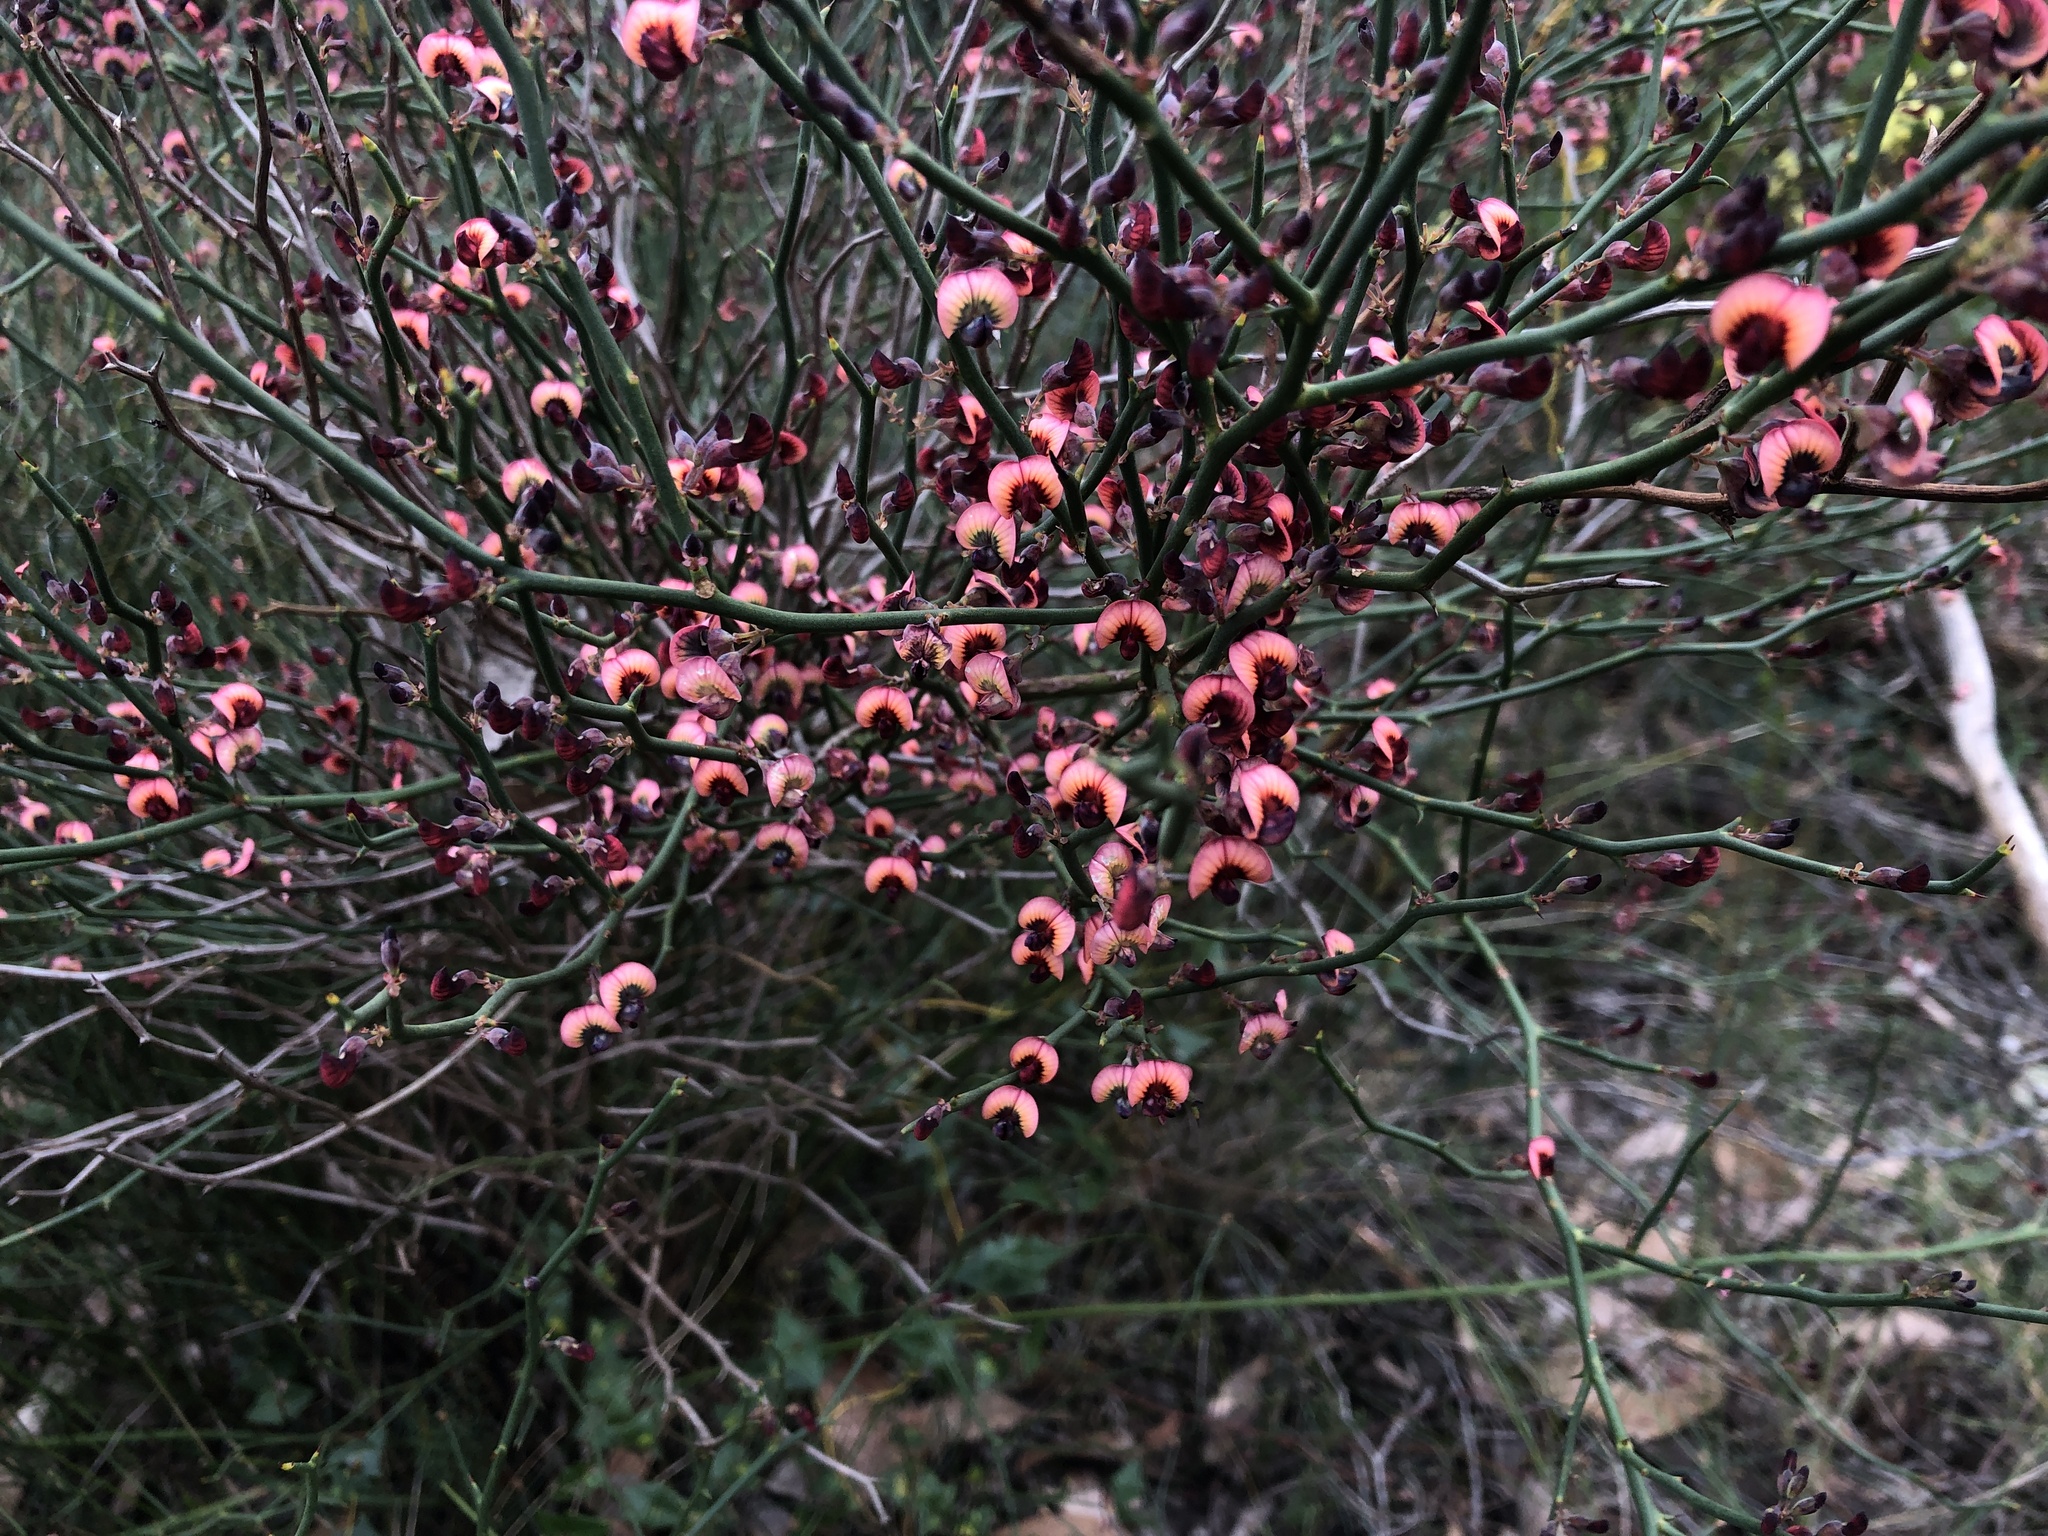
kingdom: Plantae
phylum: Tracheophyta
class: Magnoliopsida
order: Fabales
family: Fabaceae
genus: Daviesia
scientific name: Daviesia brevifolia
